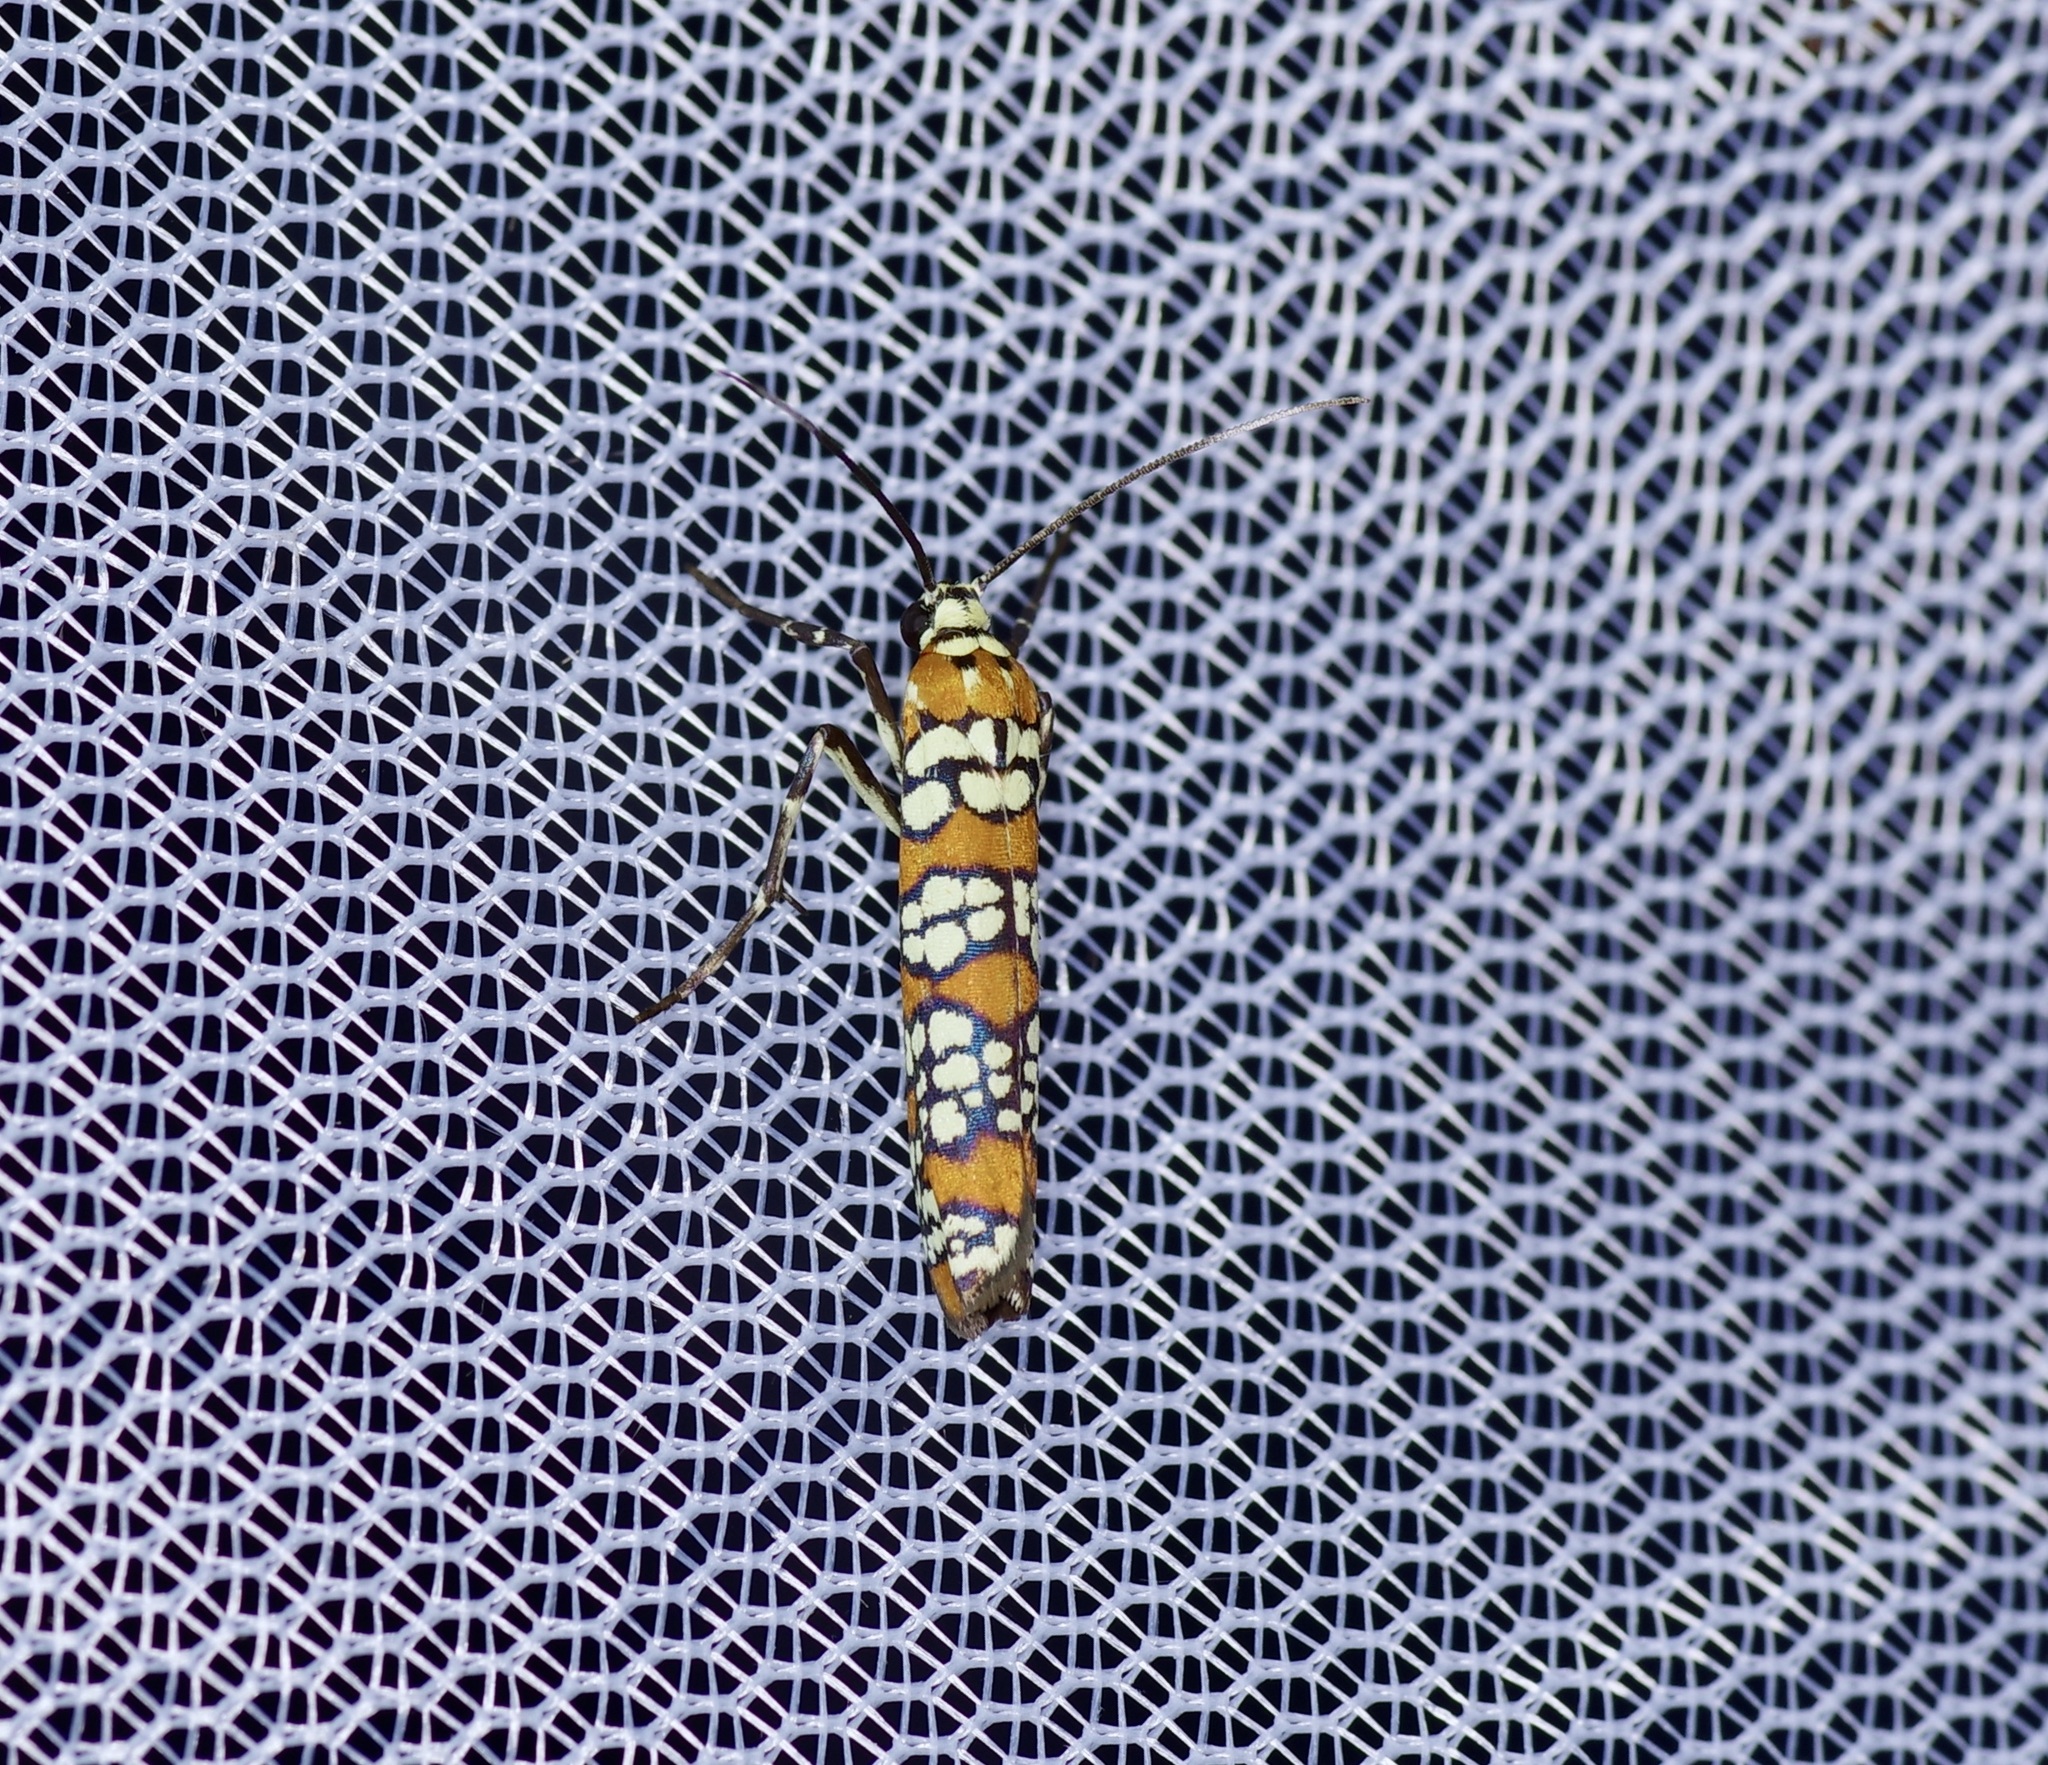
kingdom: Animalia
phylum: Arthropoda
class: Insecta
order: Lepidoptera
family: Attevidae
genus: Atteva
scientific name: Atteva punctella
